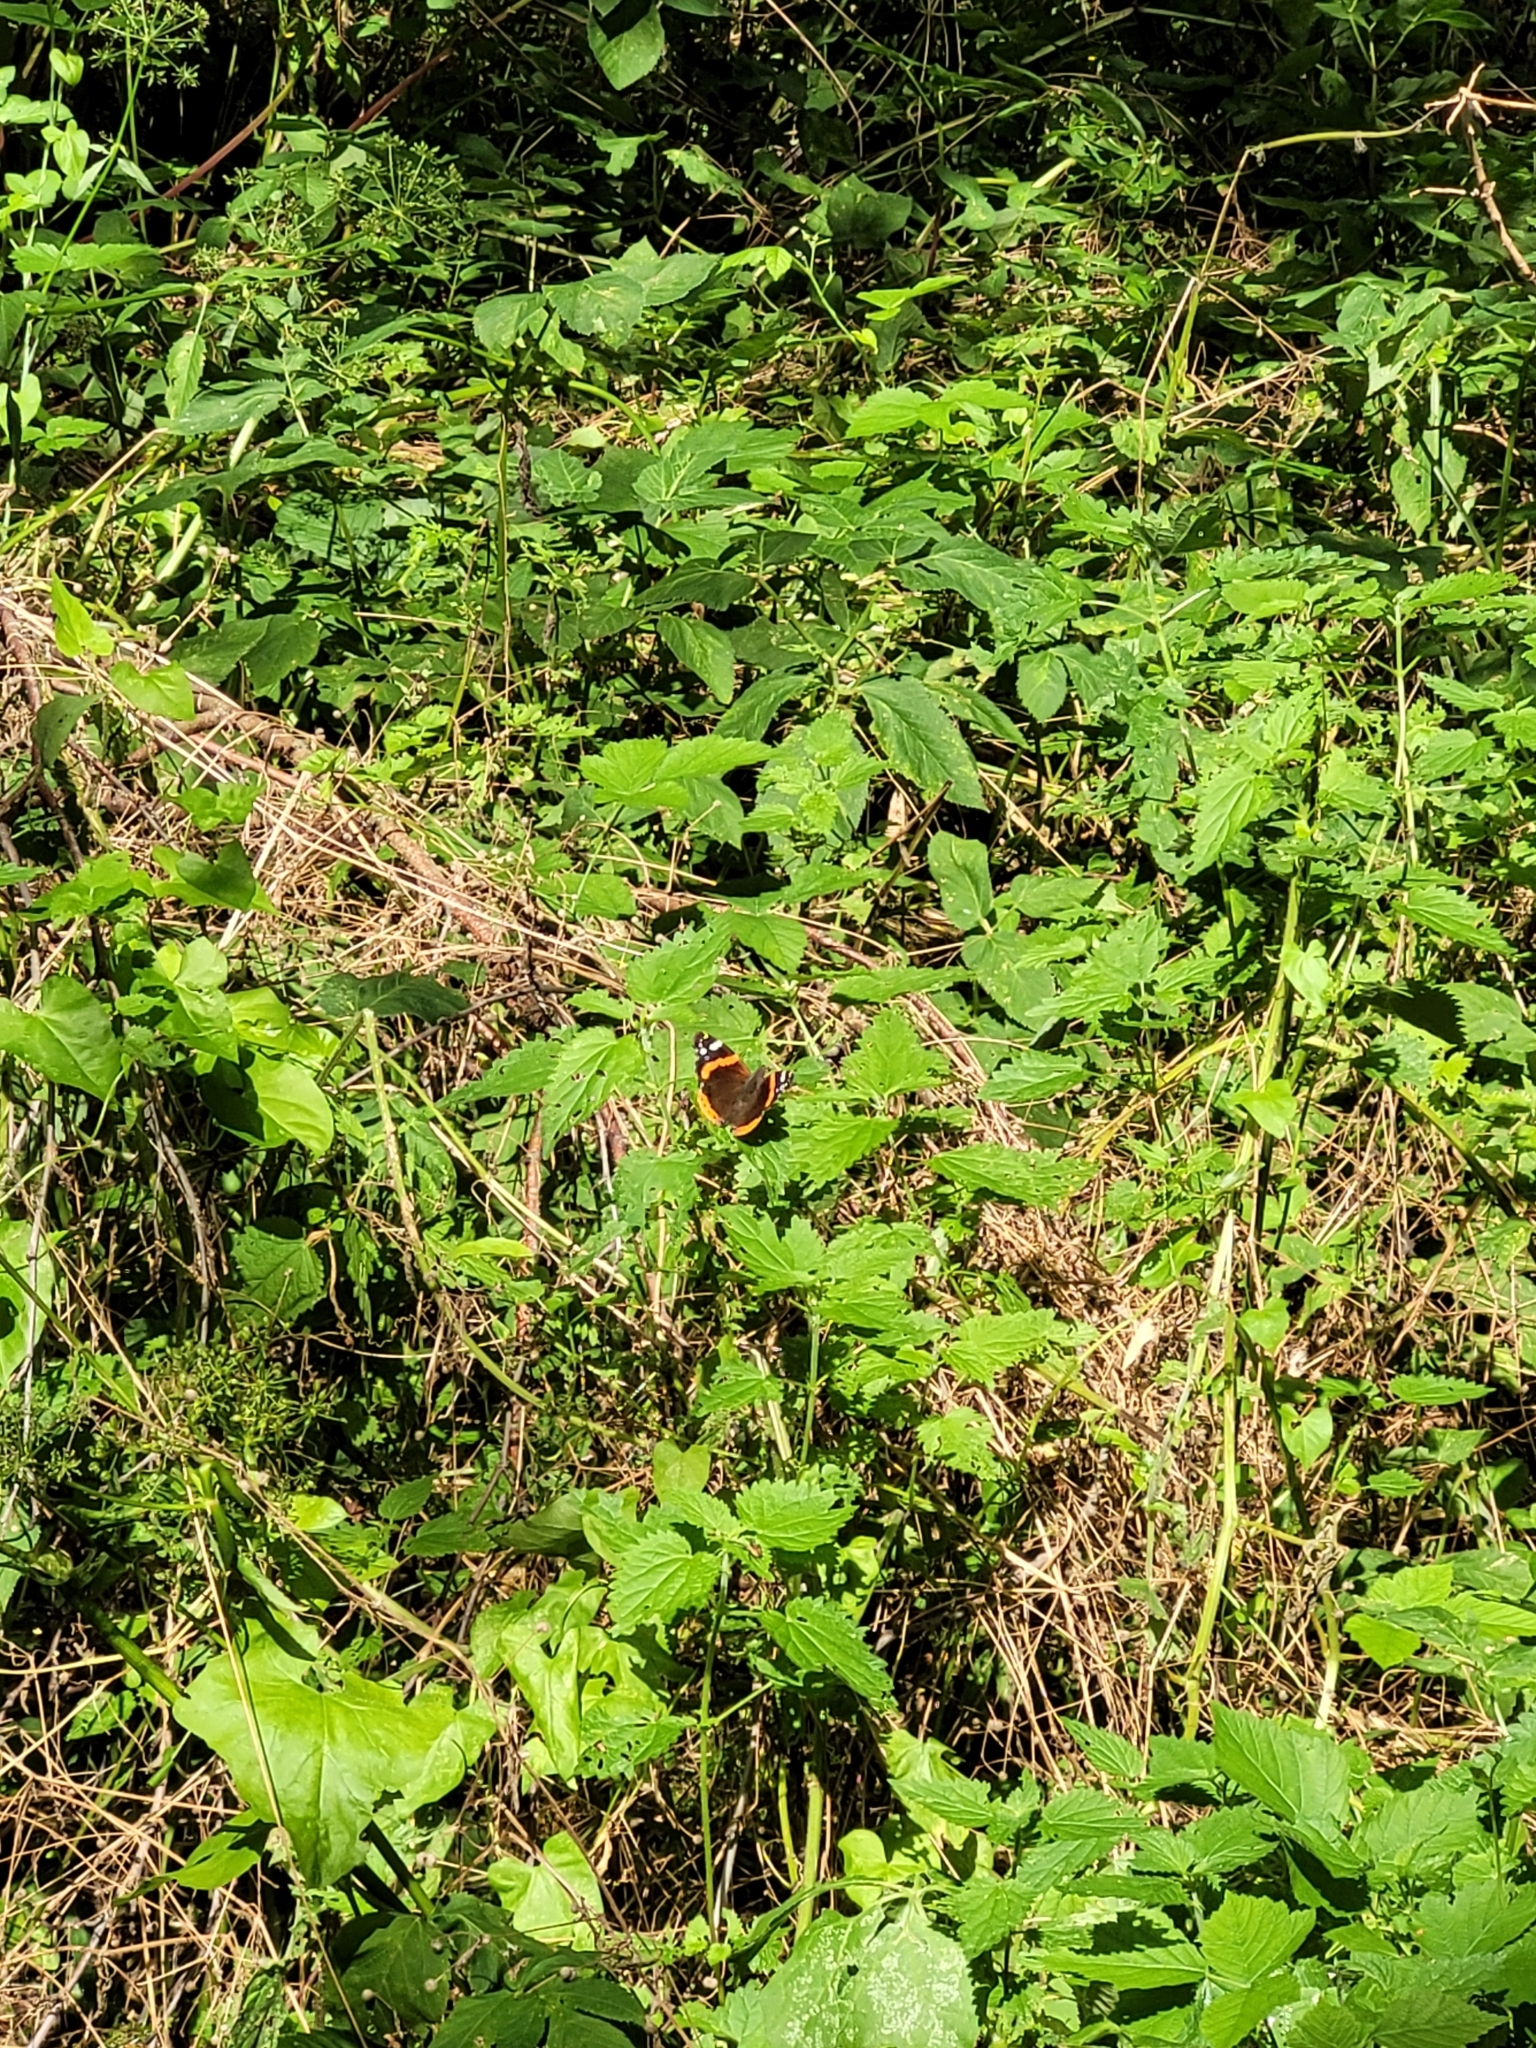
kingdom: Animalia
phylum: Arthropoda
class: Insecta
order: Lepidoptera
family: Nymphalidae
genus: Vanessa
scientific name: Vanessa atalanta
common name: Red admiral
